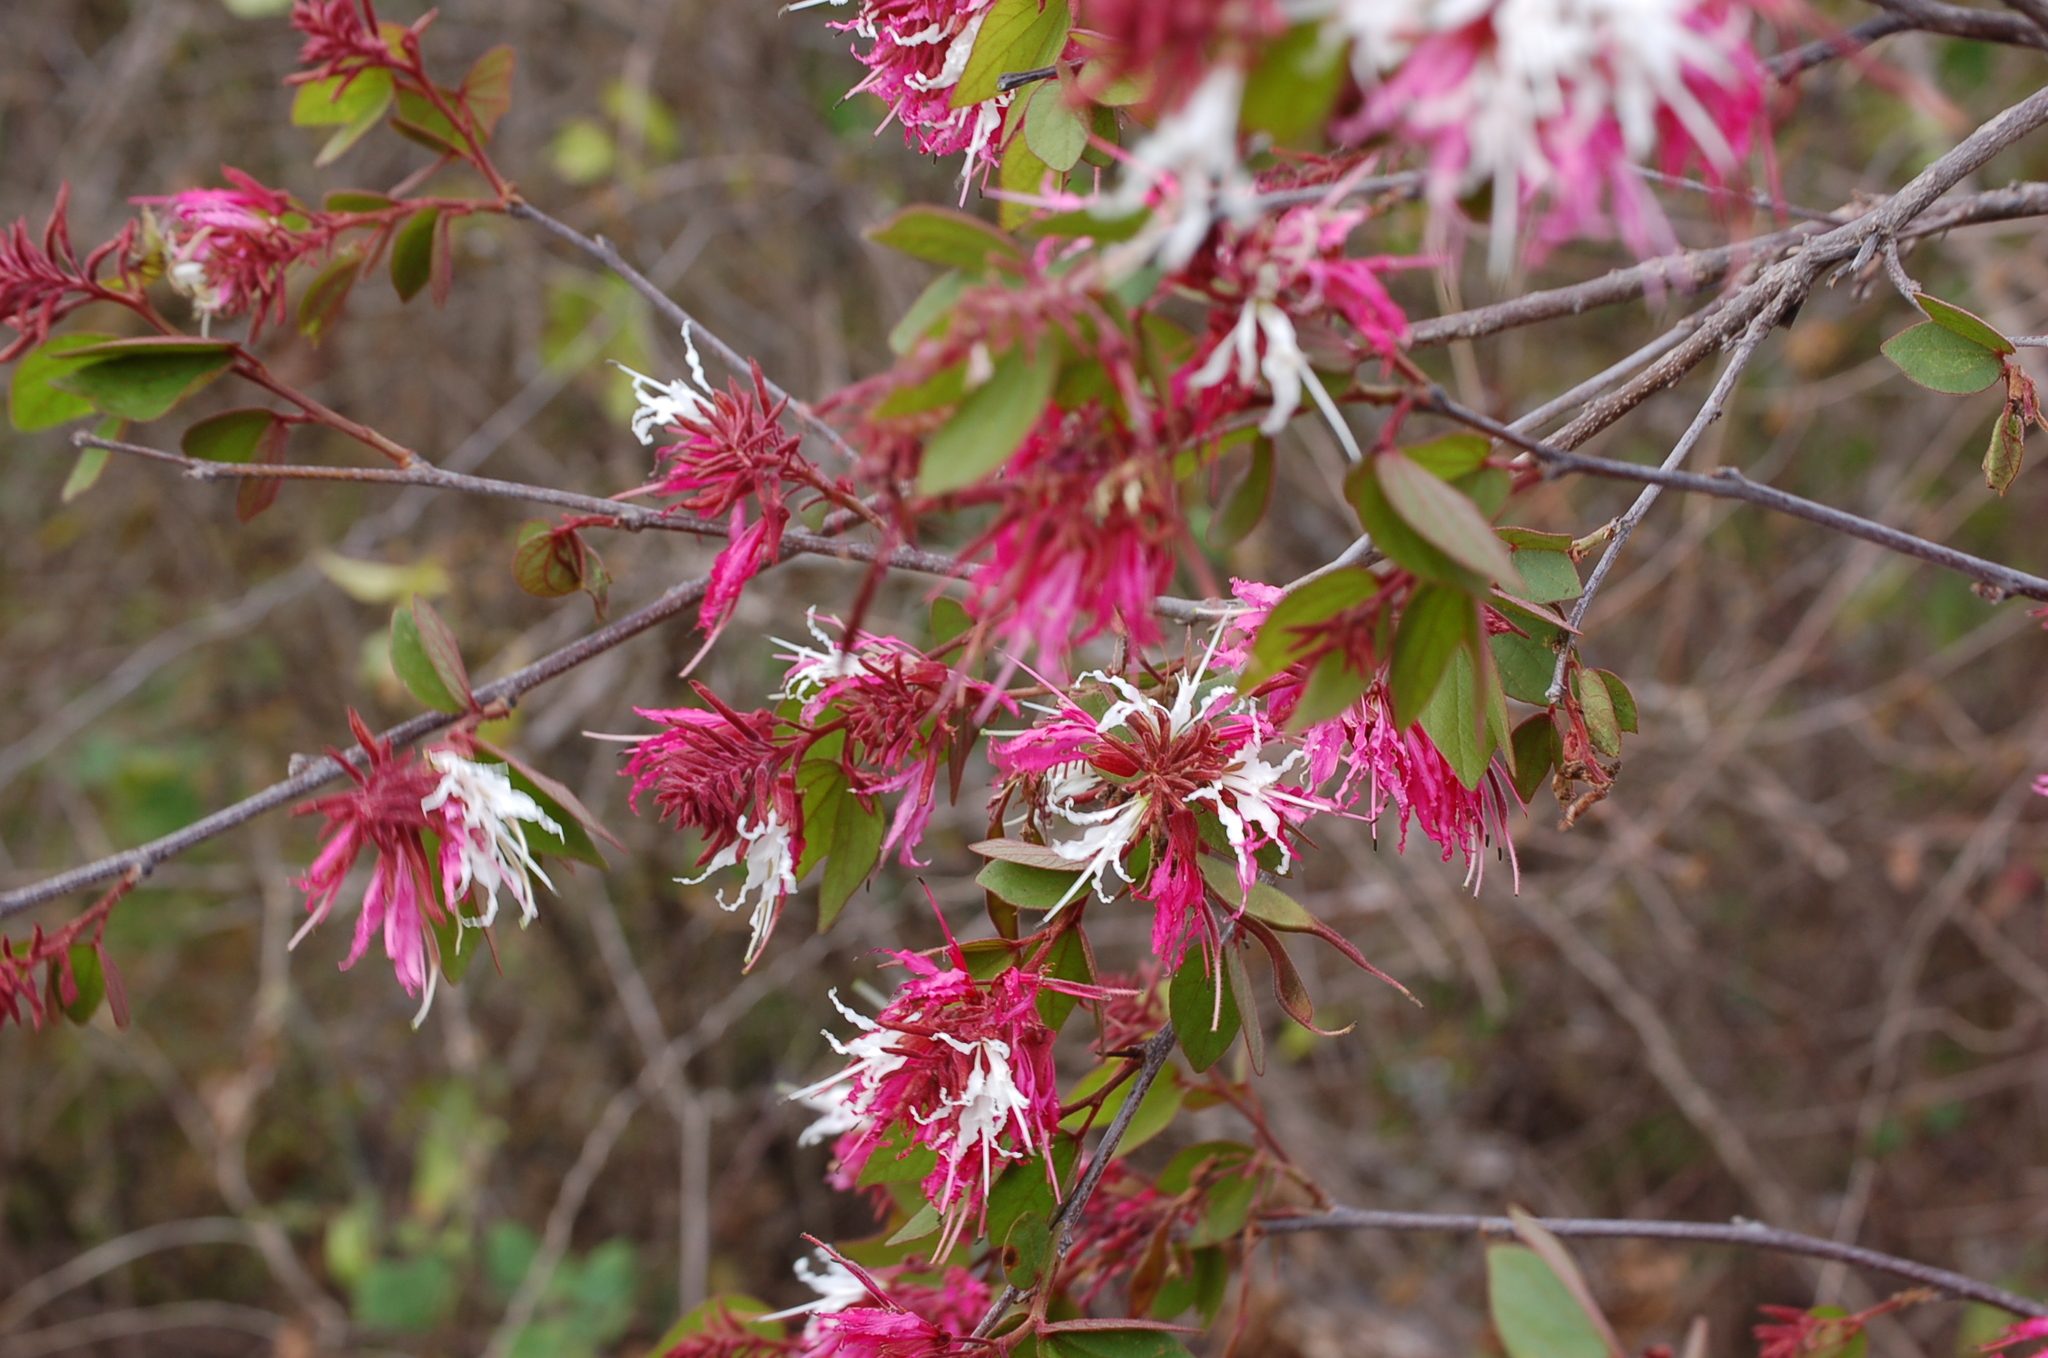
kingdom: Plantae
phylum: Tracheophyta
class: Magnoliopsida
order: Fabales
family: Fabaceae
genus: Bauhinia
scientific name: Bauhinia divaricata
